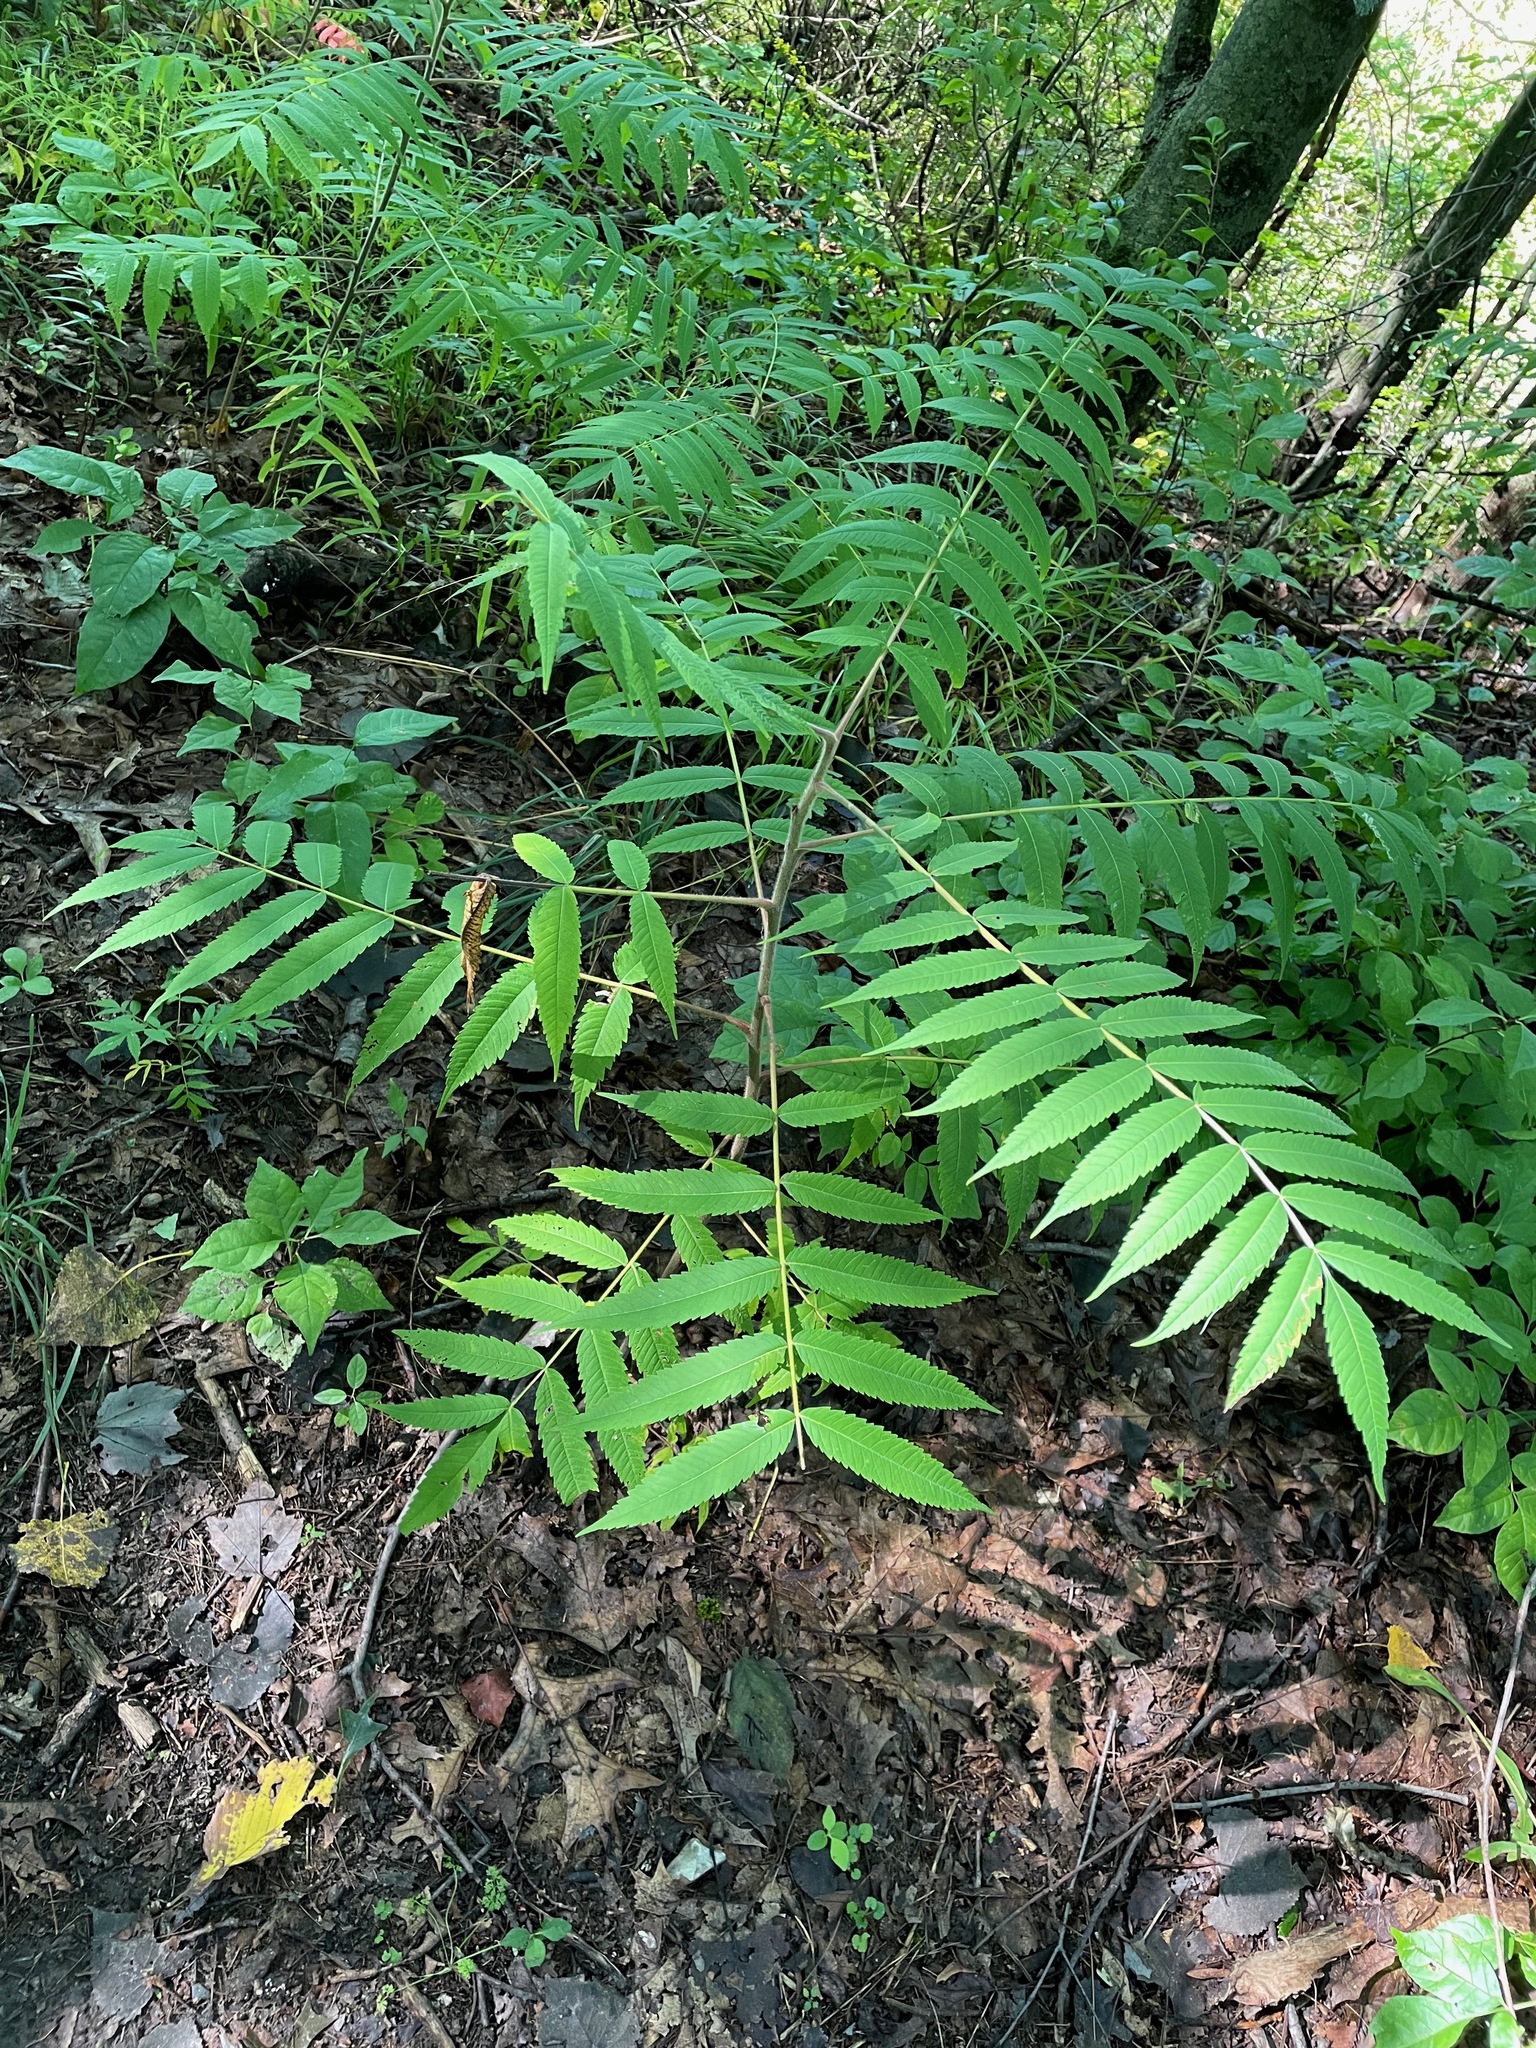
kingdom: Plantae
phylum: Tracheophyta
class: Magnoliopsida
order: Sapindales
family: Anacardiaceae
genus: Rhus
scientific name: Rhus typhina
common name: Staghorn sumac
